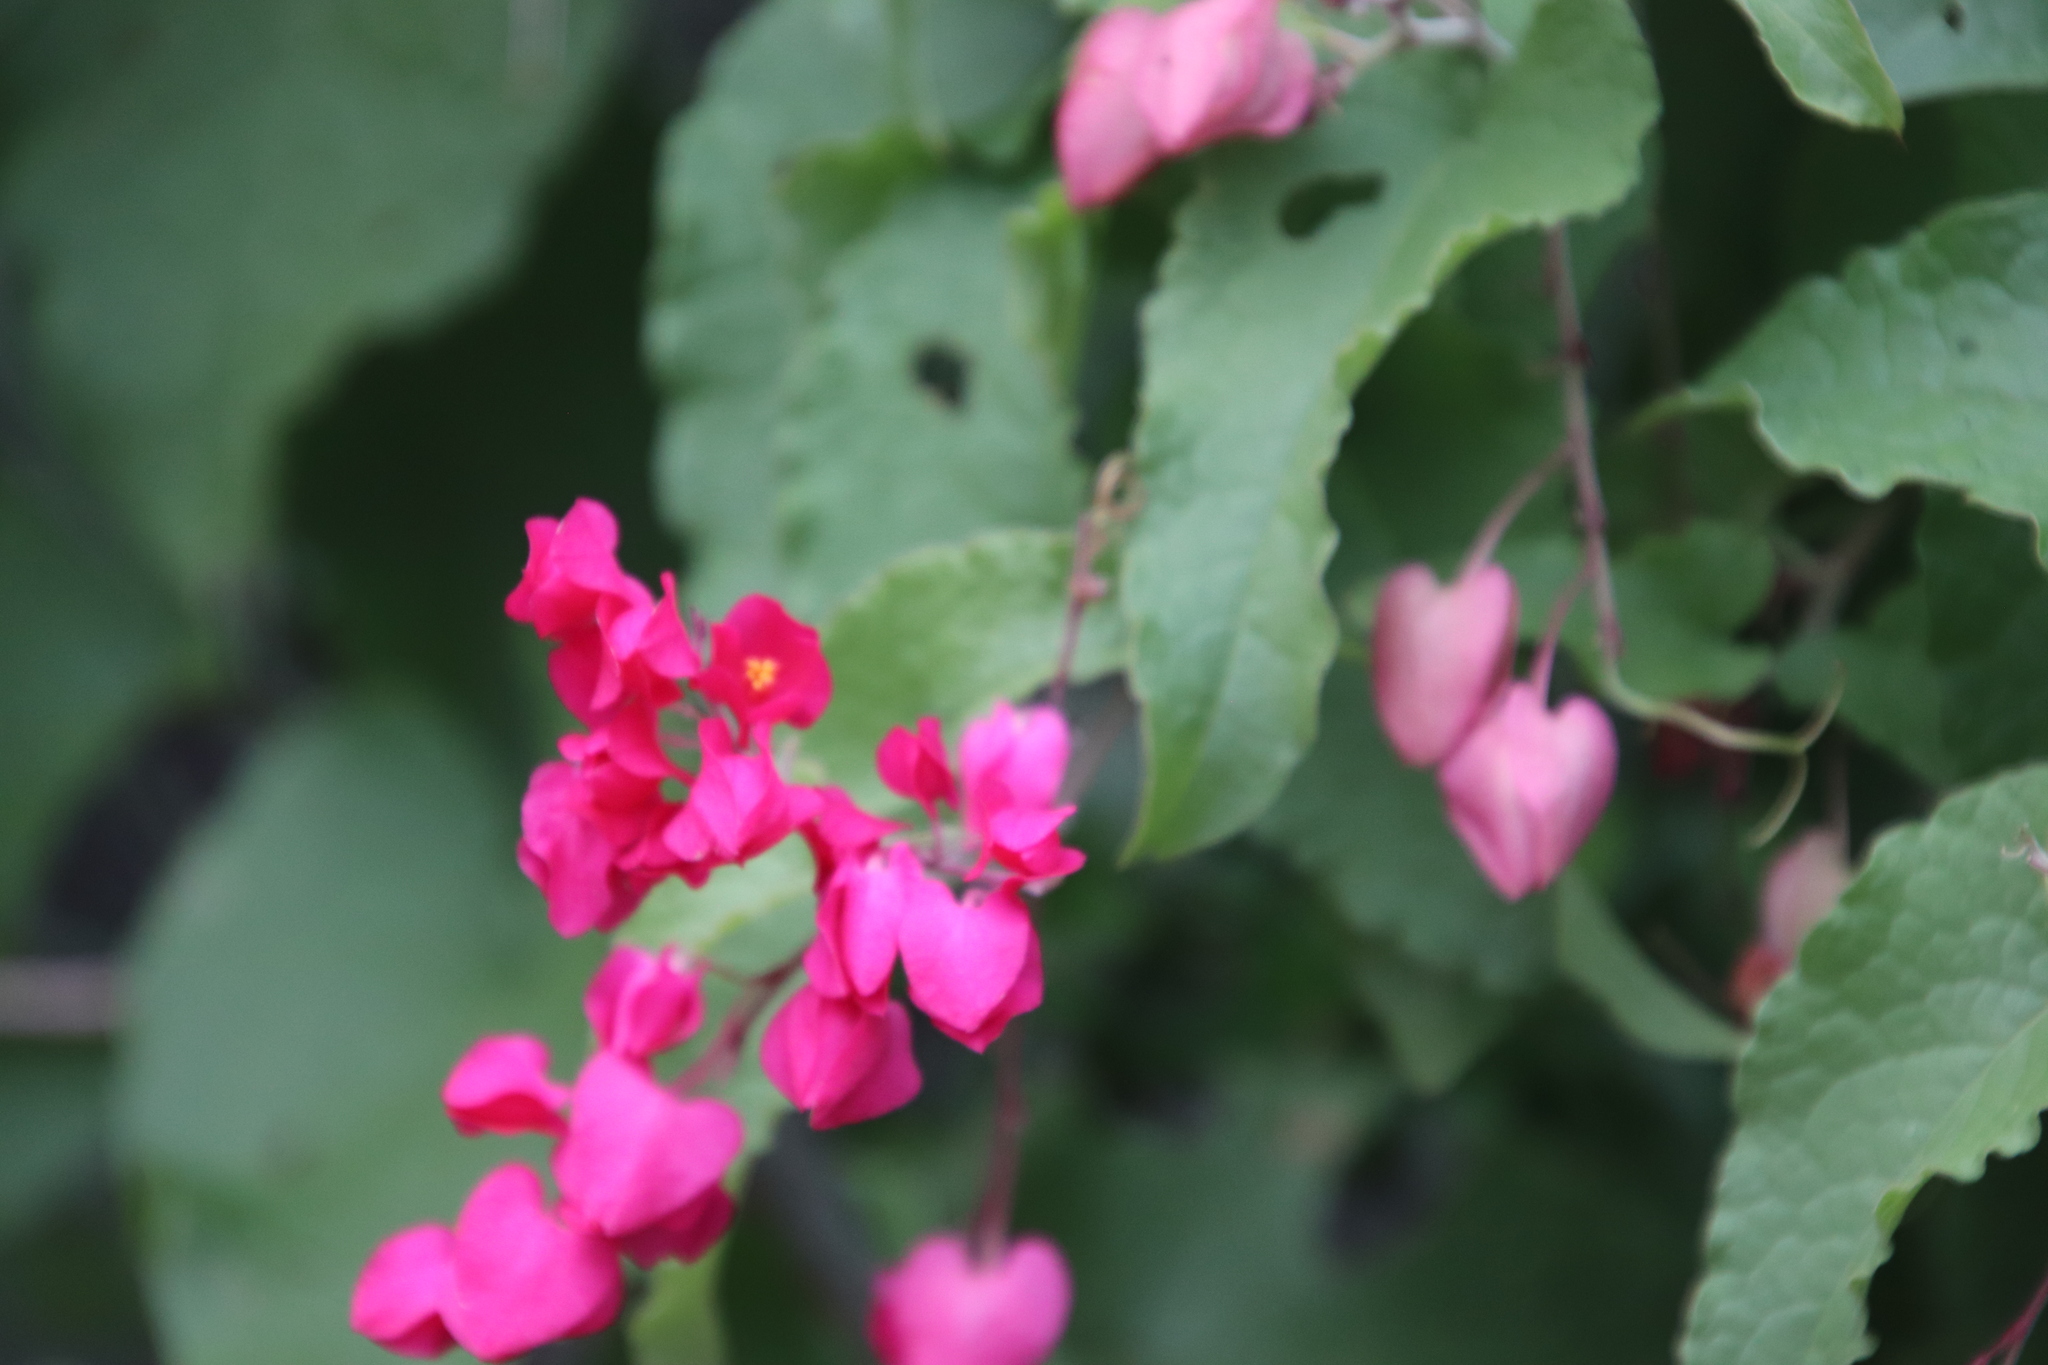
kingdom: Plantae
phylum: Tracheophyta
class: Magnoliopsida
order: Caryophyllales
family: Polygonaceae
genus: Antigonon
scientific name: Antigonon leptopus
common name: Coral vine
